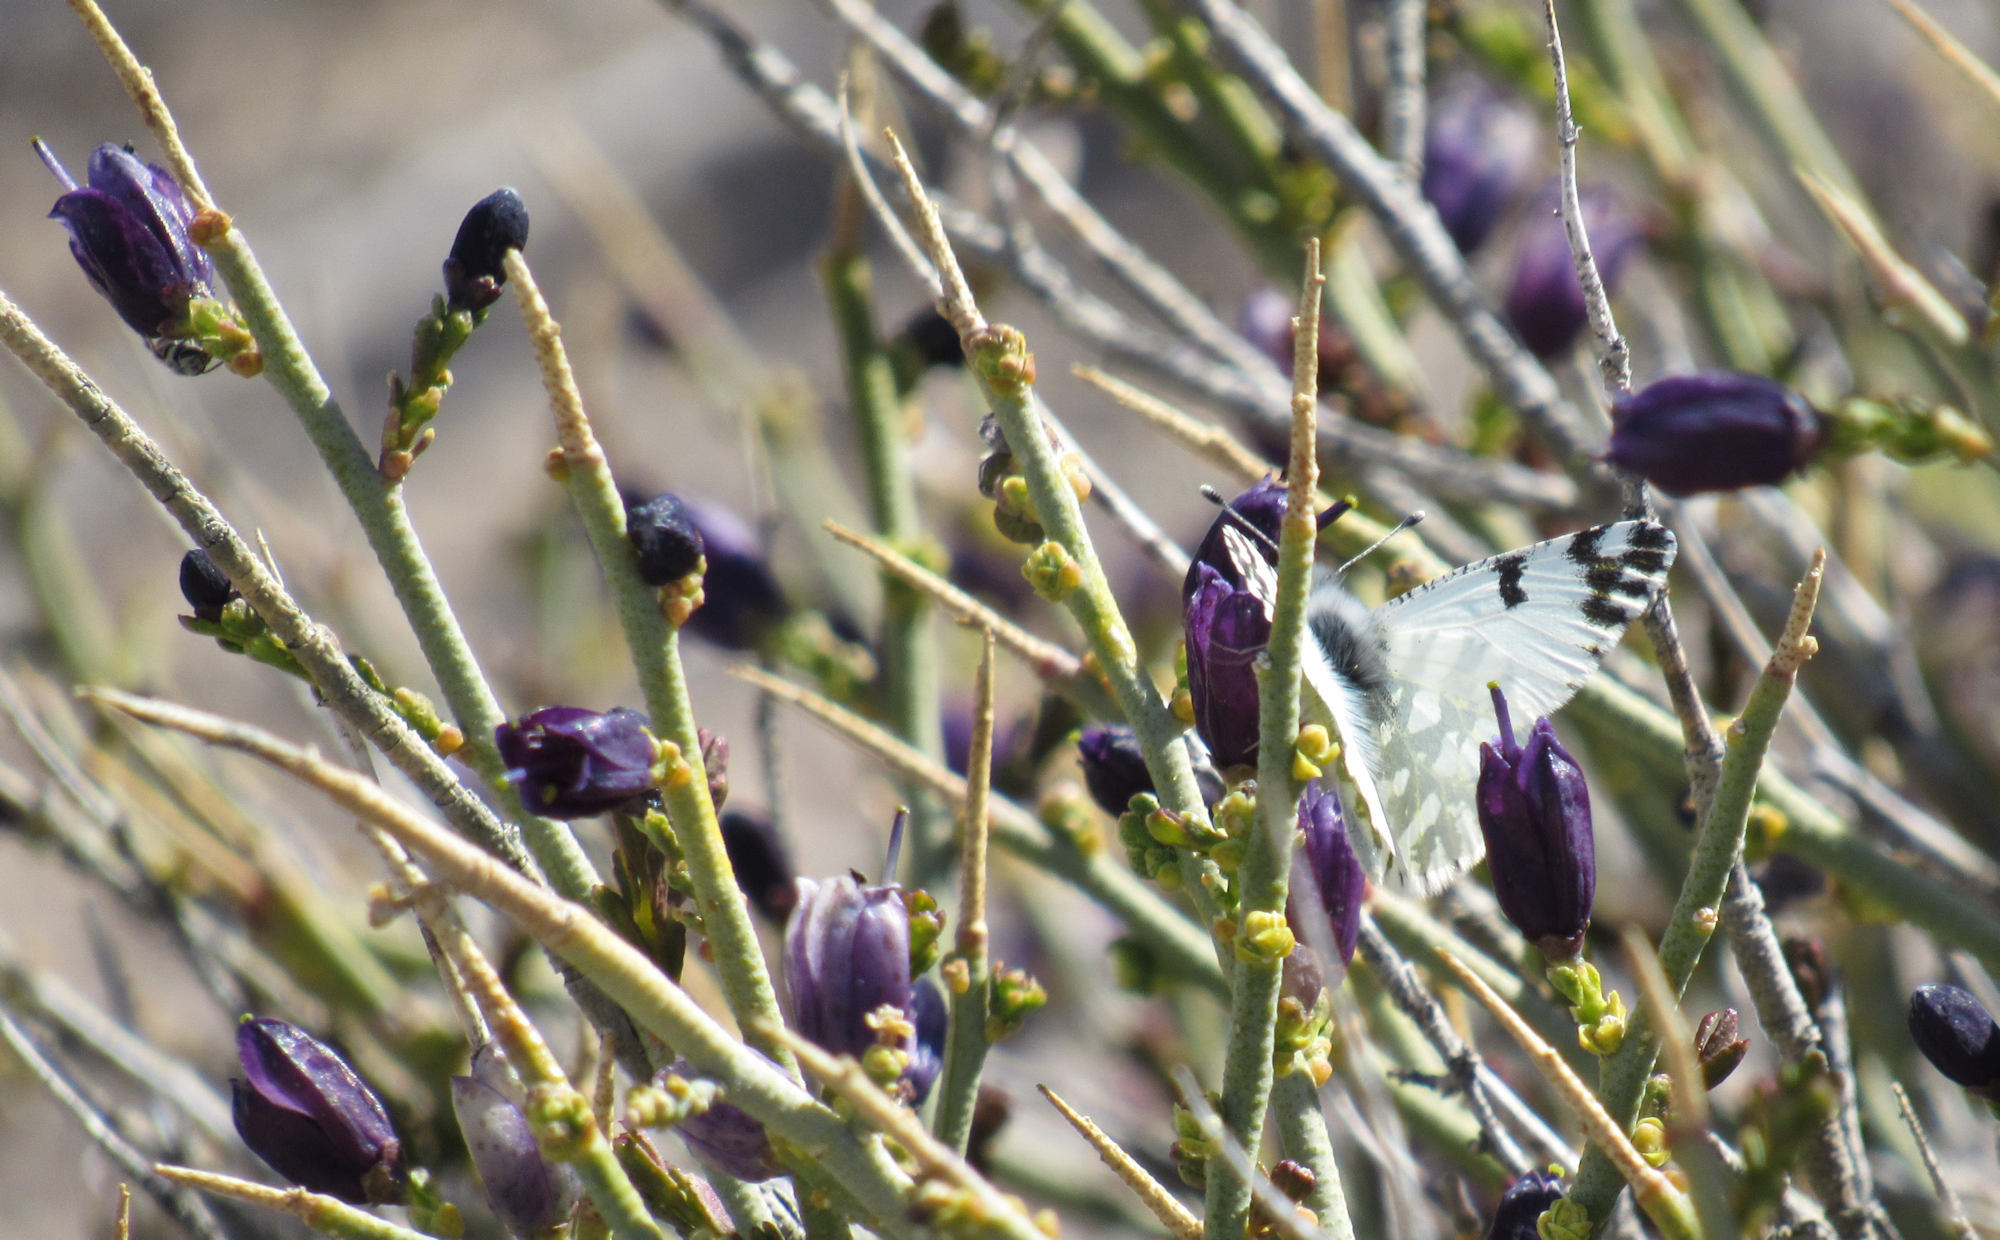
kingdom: Animalia
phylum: Arthropoda
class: Insecta
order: Lepidoptera
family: Pieridae
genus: Euchloe
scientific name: Euchloe lotta
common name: Desert marble
